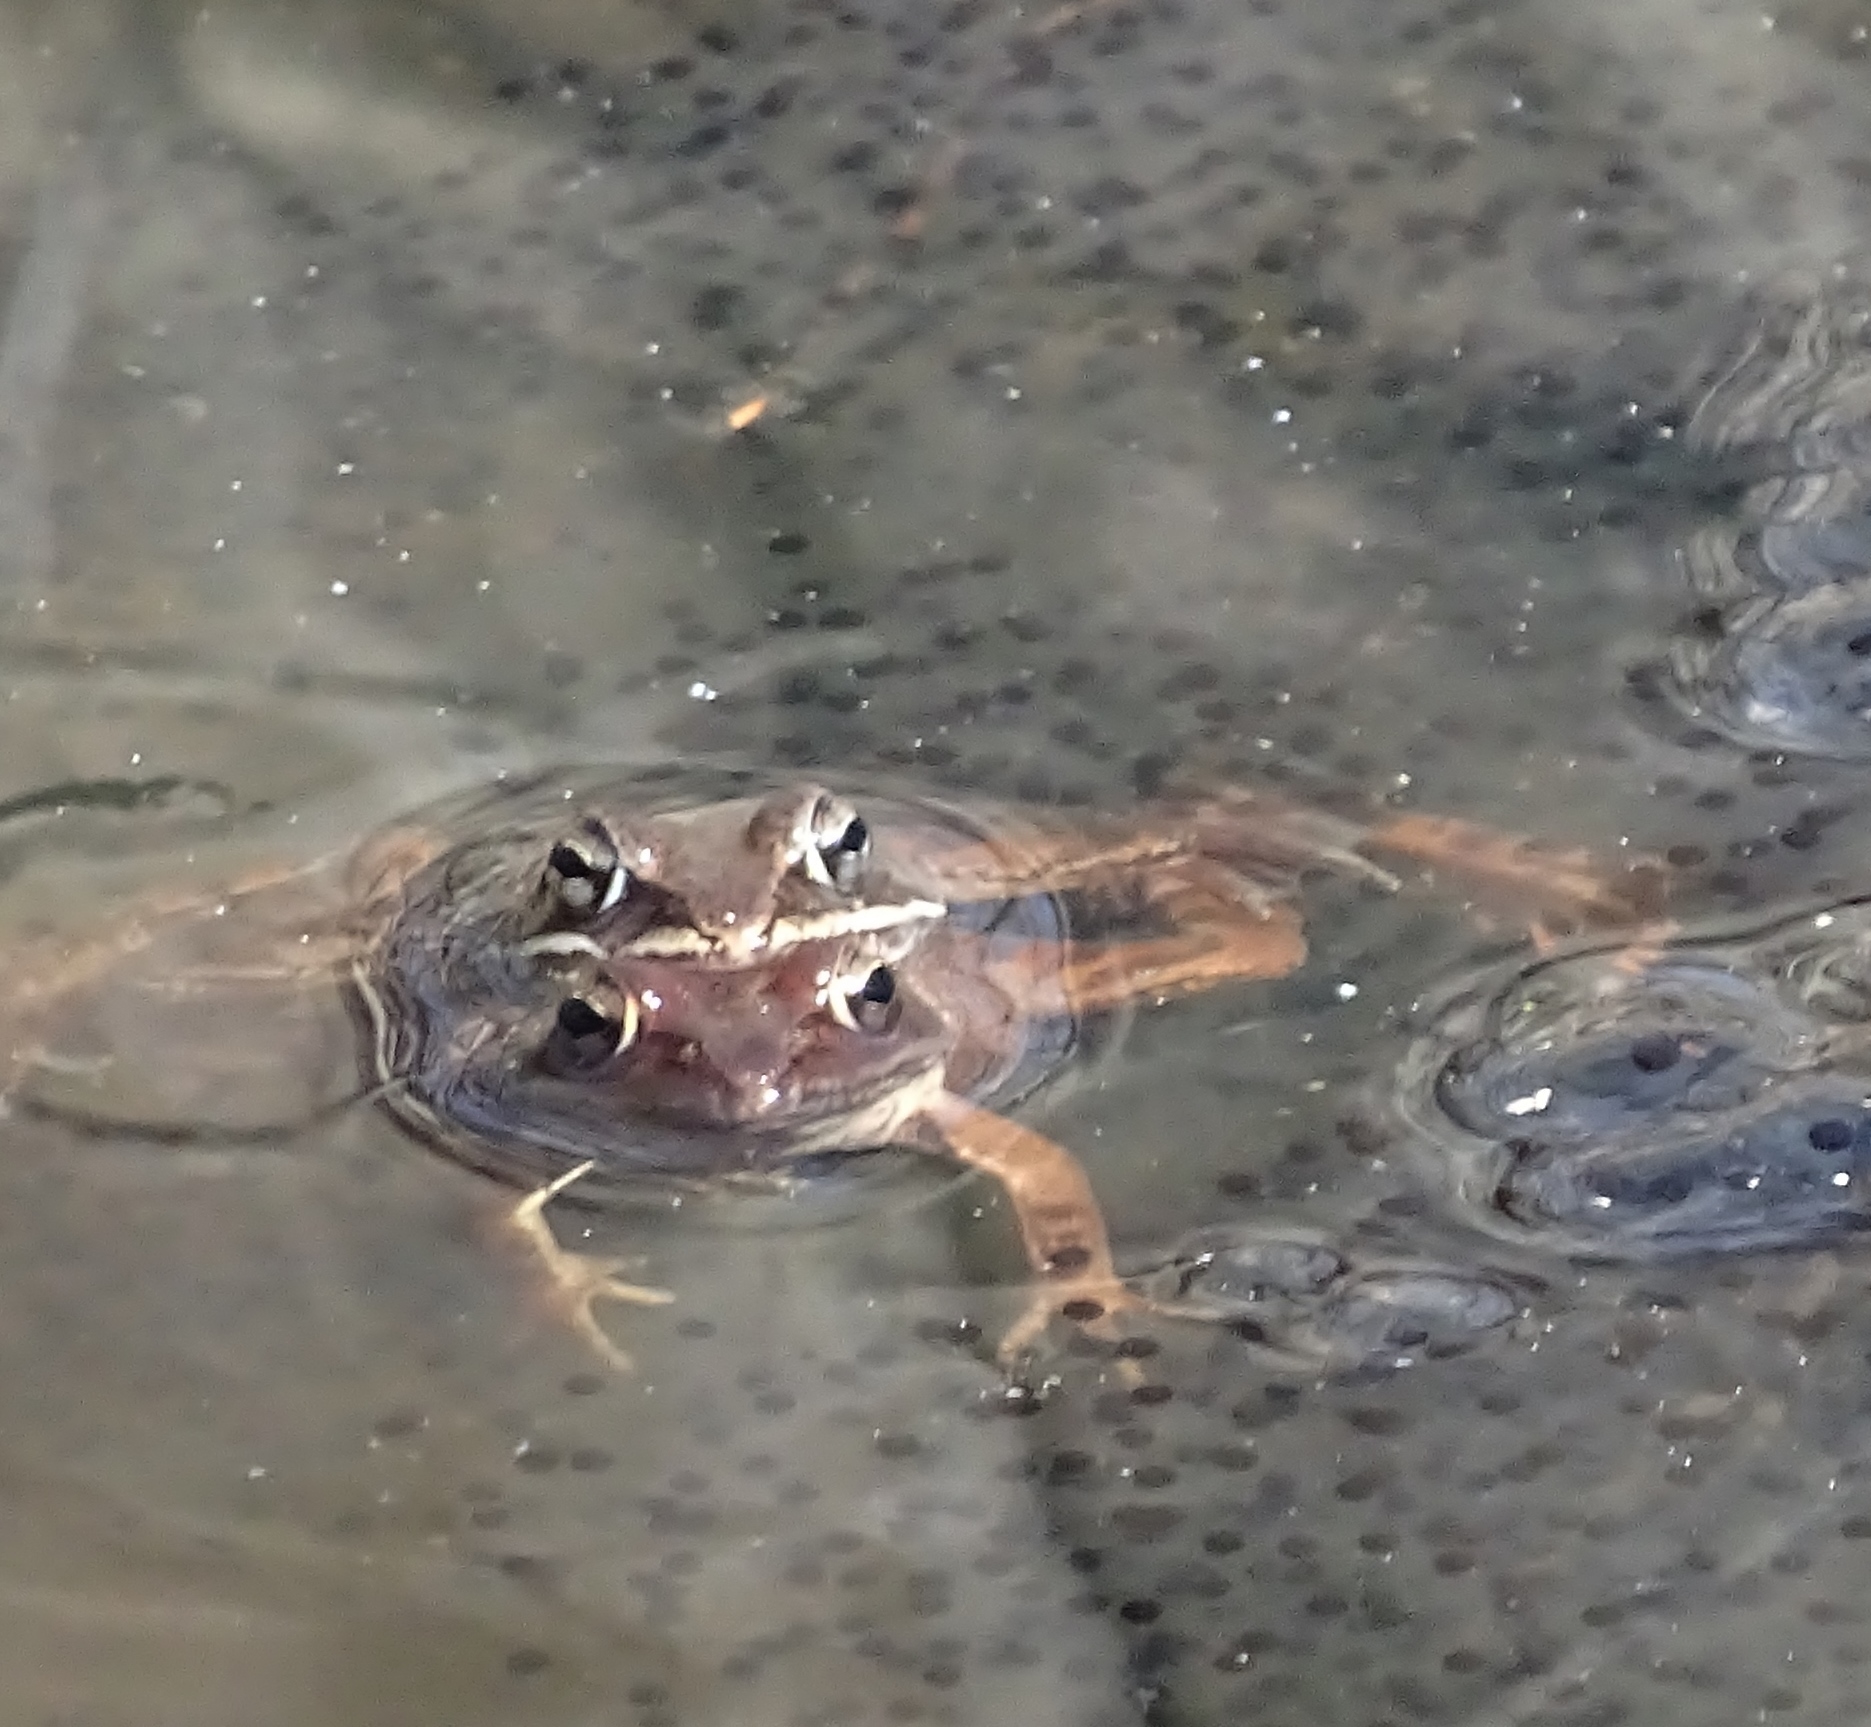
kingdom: Animalia
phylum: Chordata
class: Amphibia
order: Anura
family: Ranidae
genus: Lithobates
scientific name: Lithobates sylvaticus
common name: Wood frog
